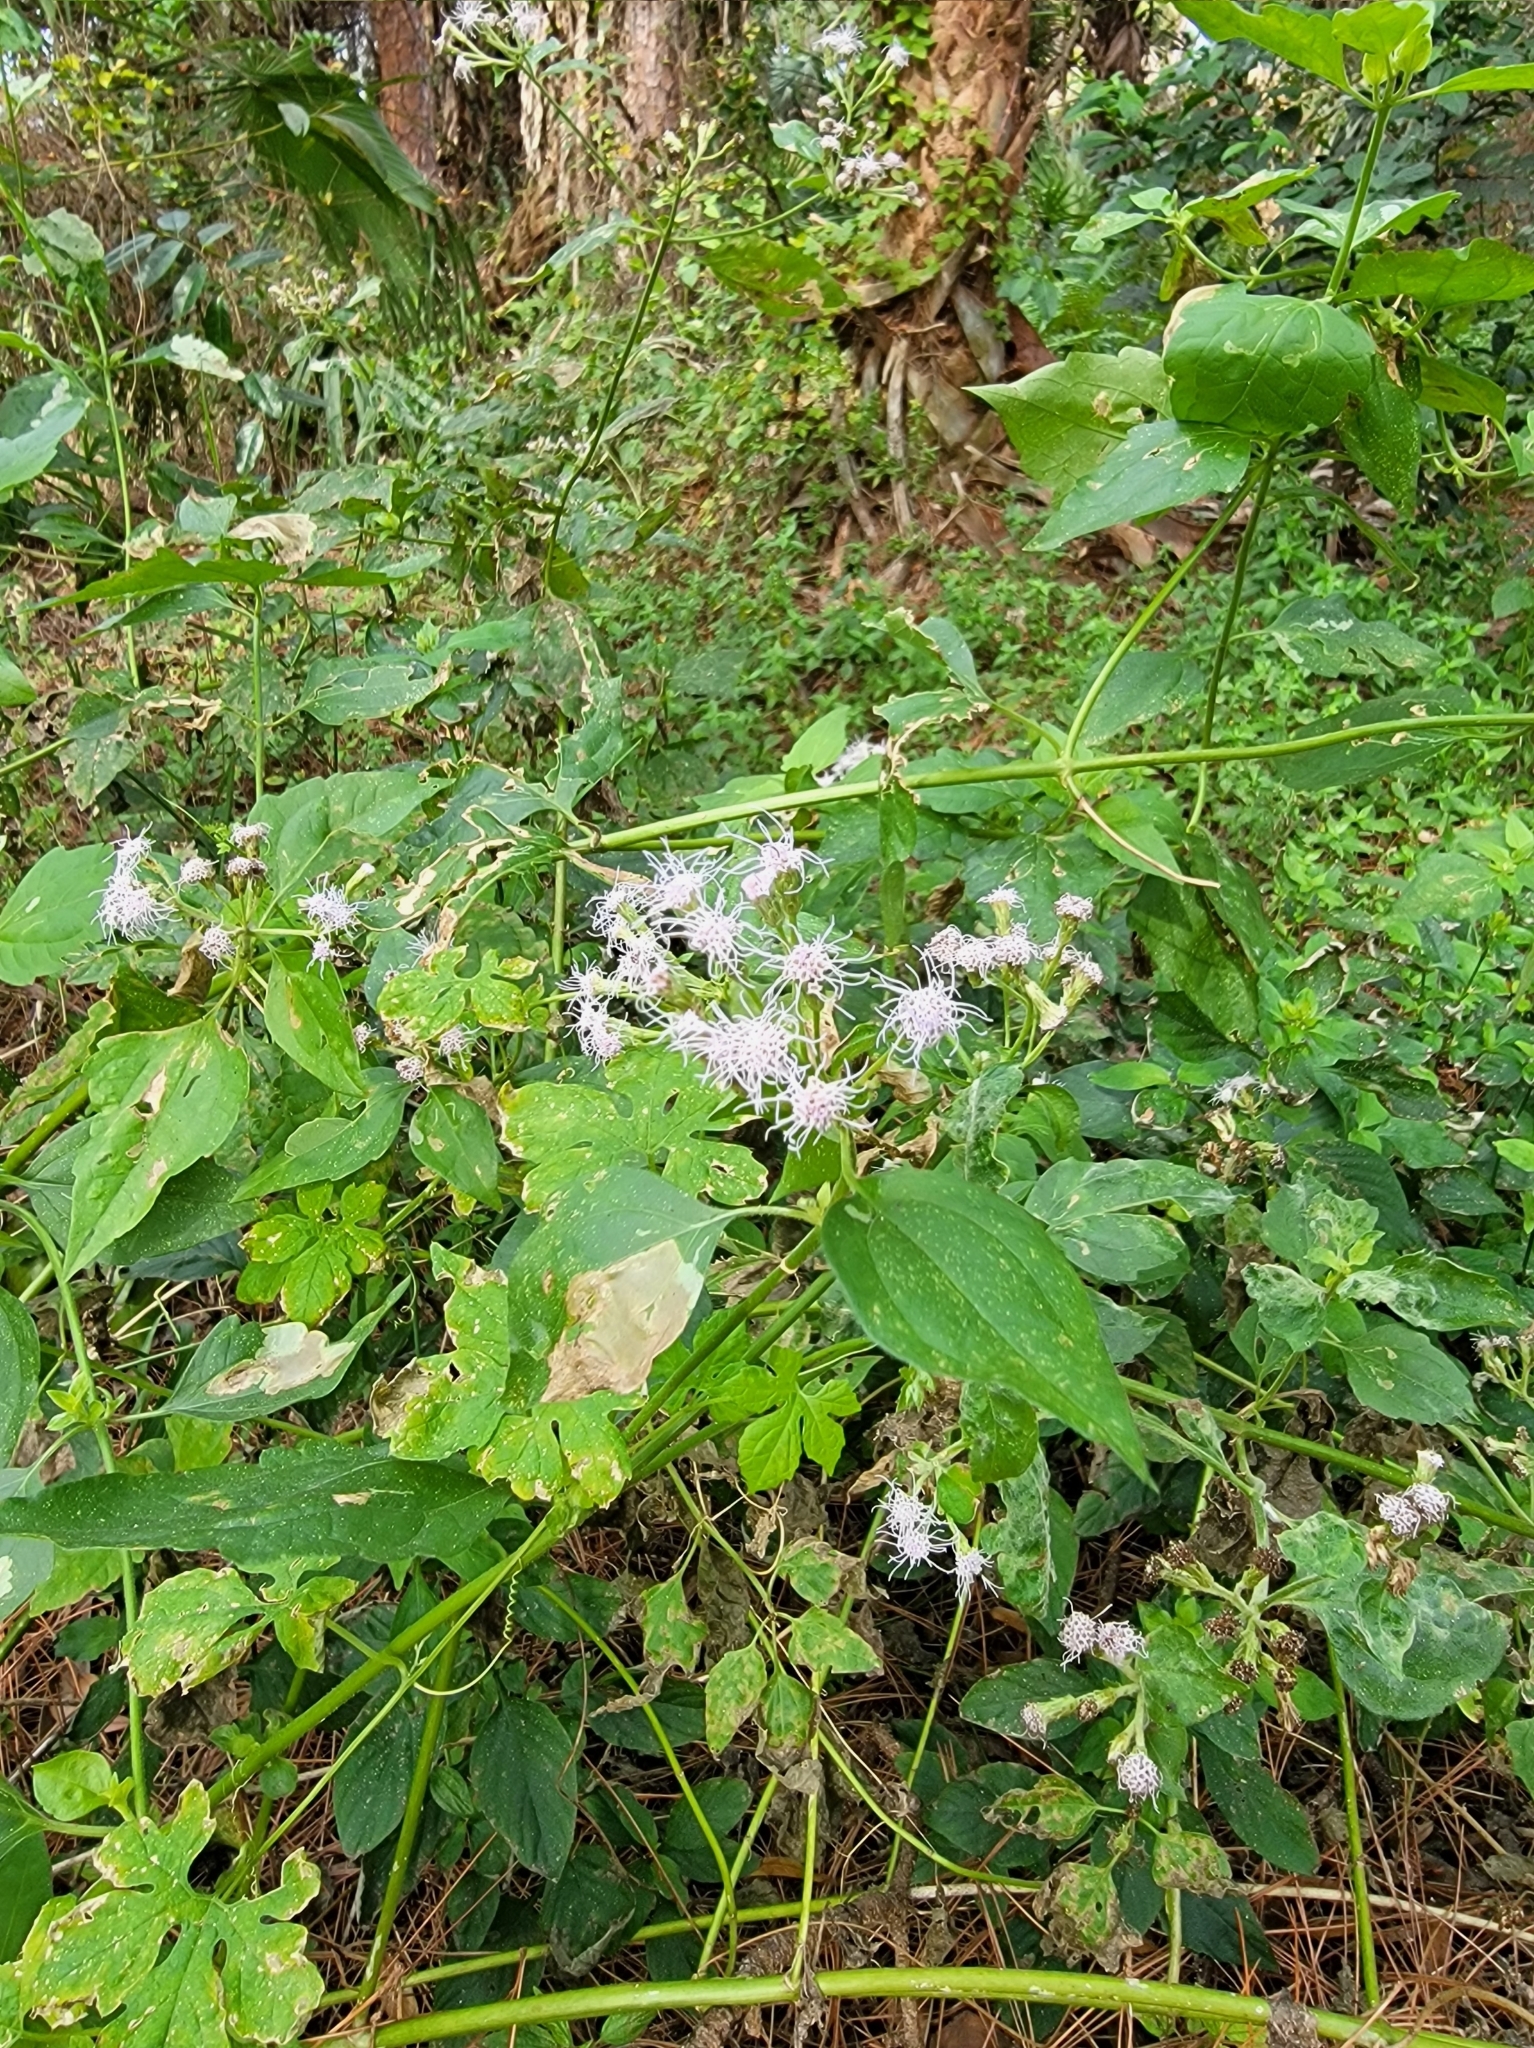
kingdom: Plantae
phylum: Tracheophyta
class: Magnoliopsida
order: Asterales
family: Asteraceae
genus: Chromolaena
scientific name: Chromolaena odorata
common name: Siamweed
